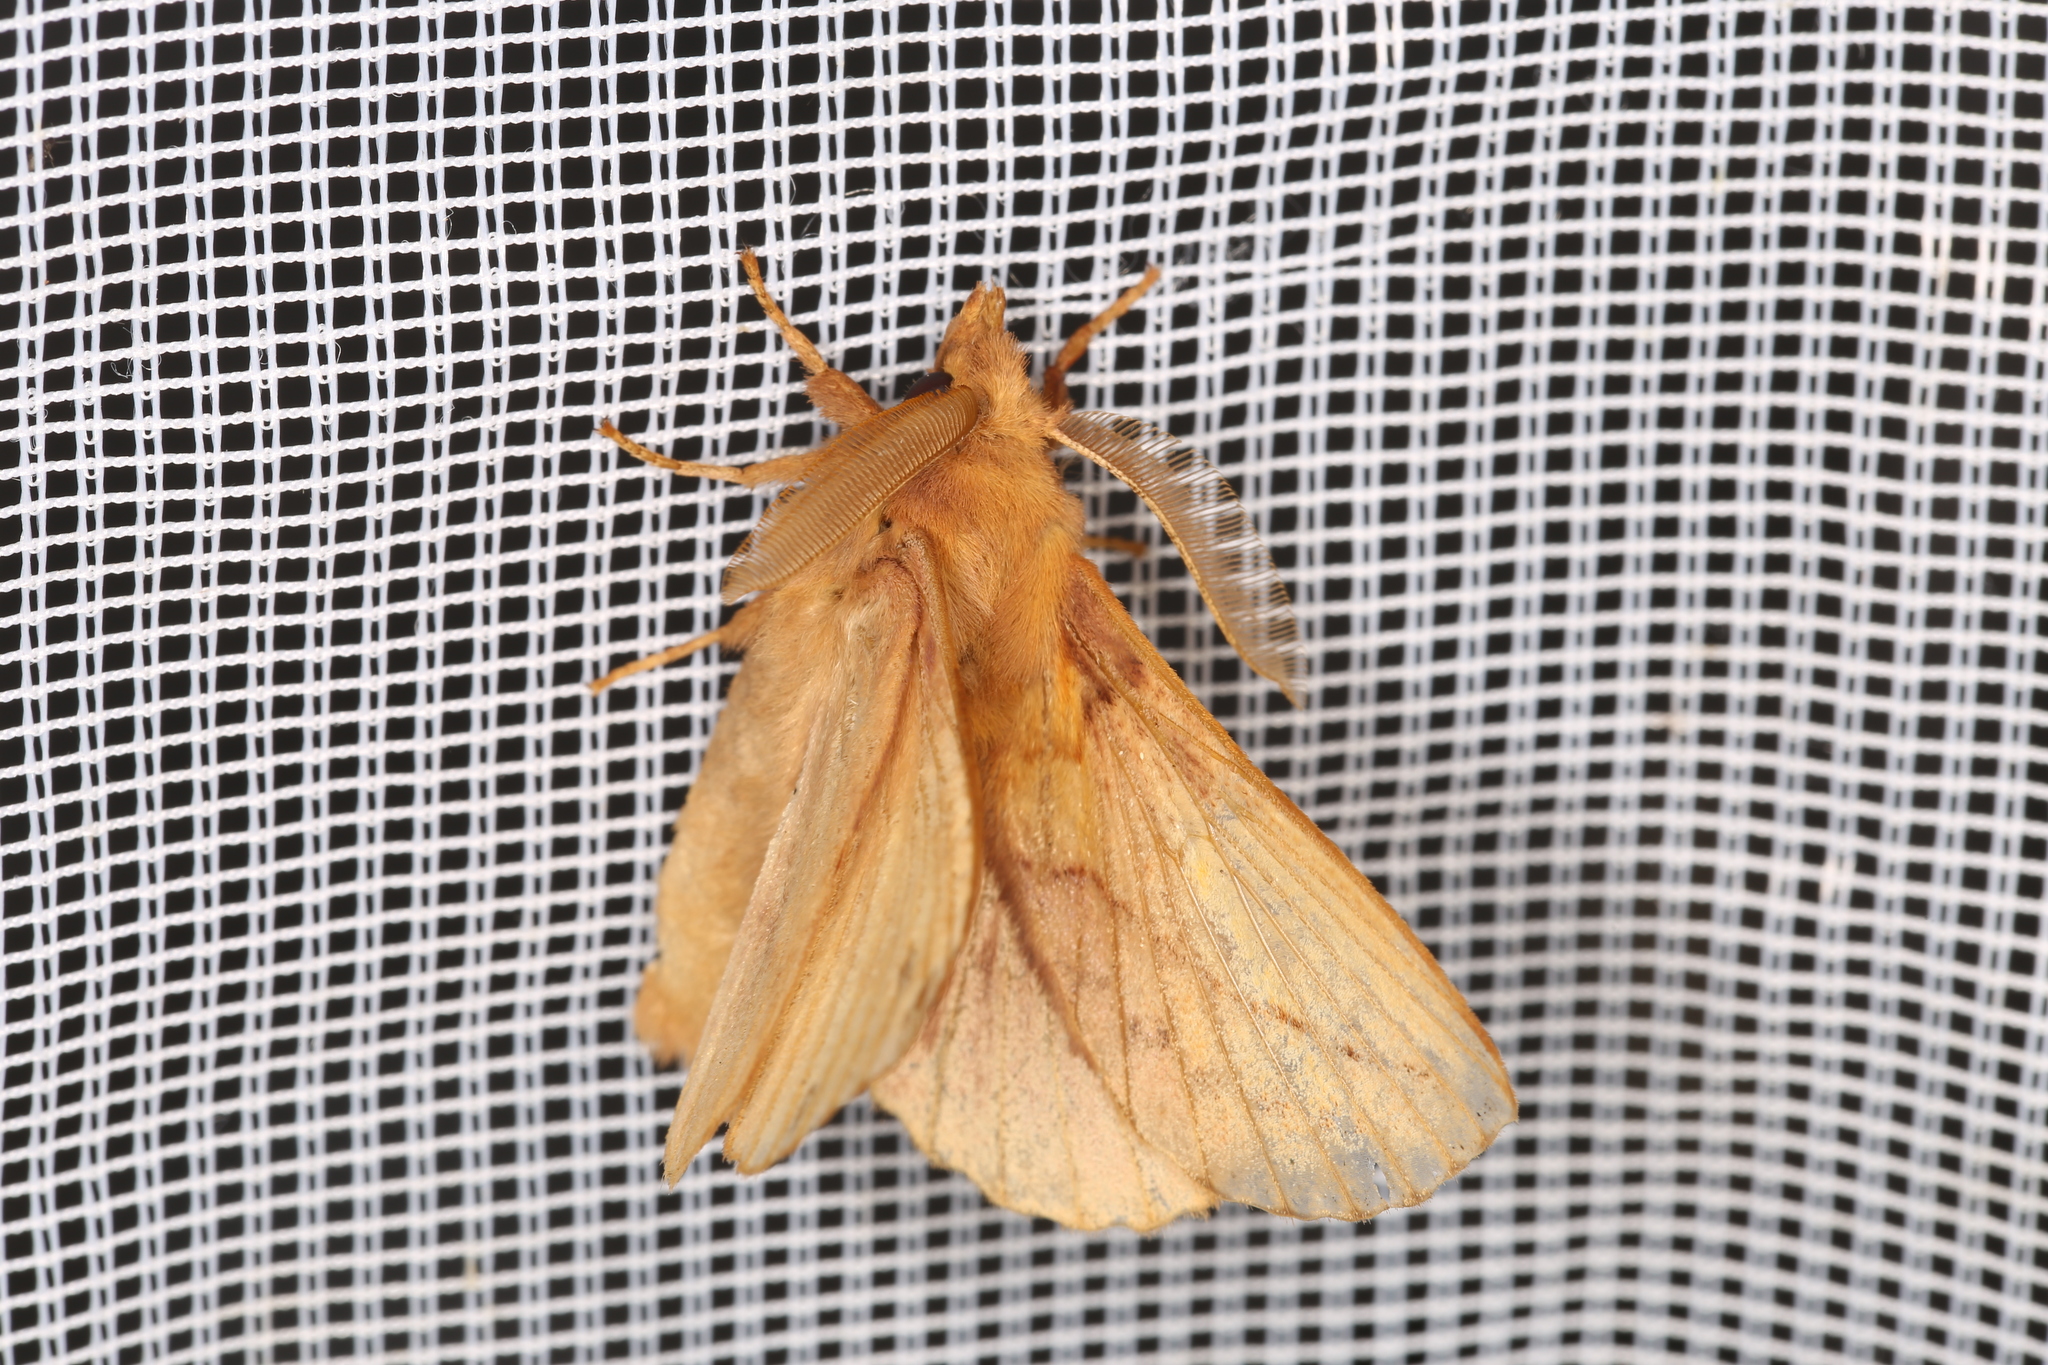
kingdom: Animalia
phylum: Arthropoda
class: Insecta
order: Lepidoptera
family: Lasiocampidae
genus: Euthrix
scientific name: Euthrix potatoria
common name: Drinker
